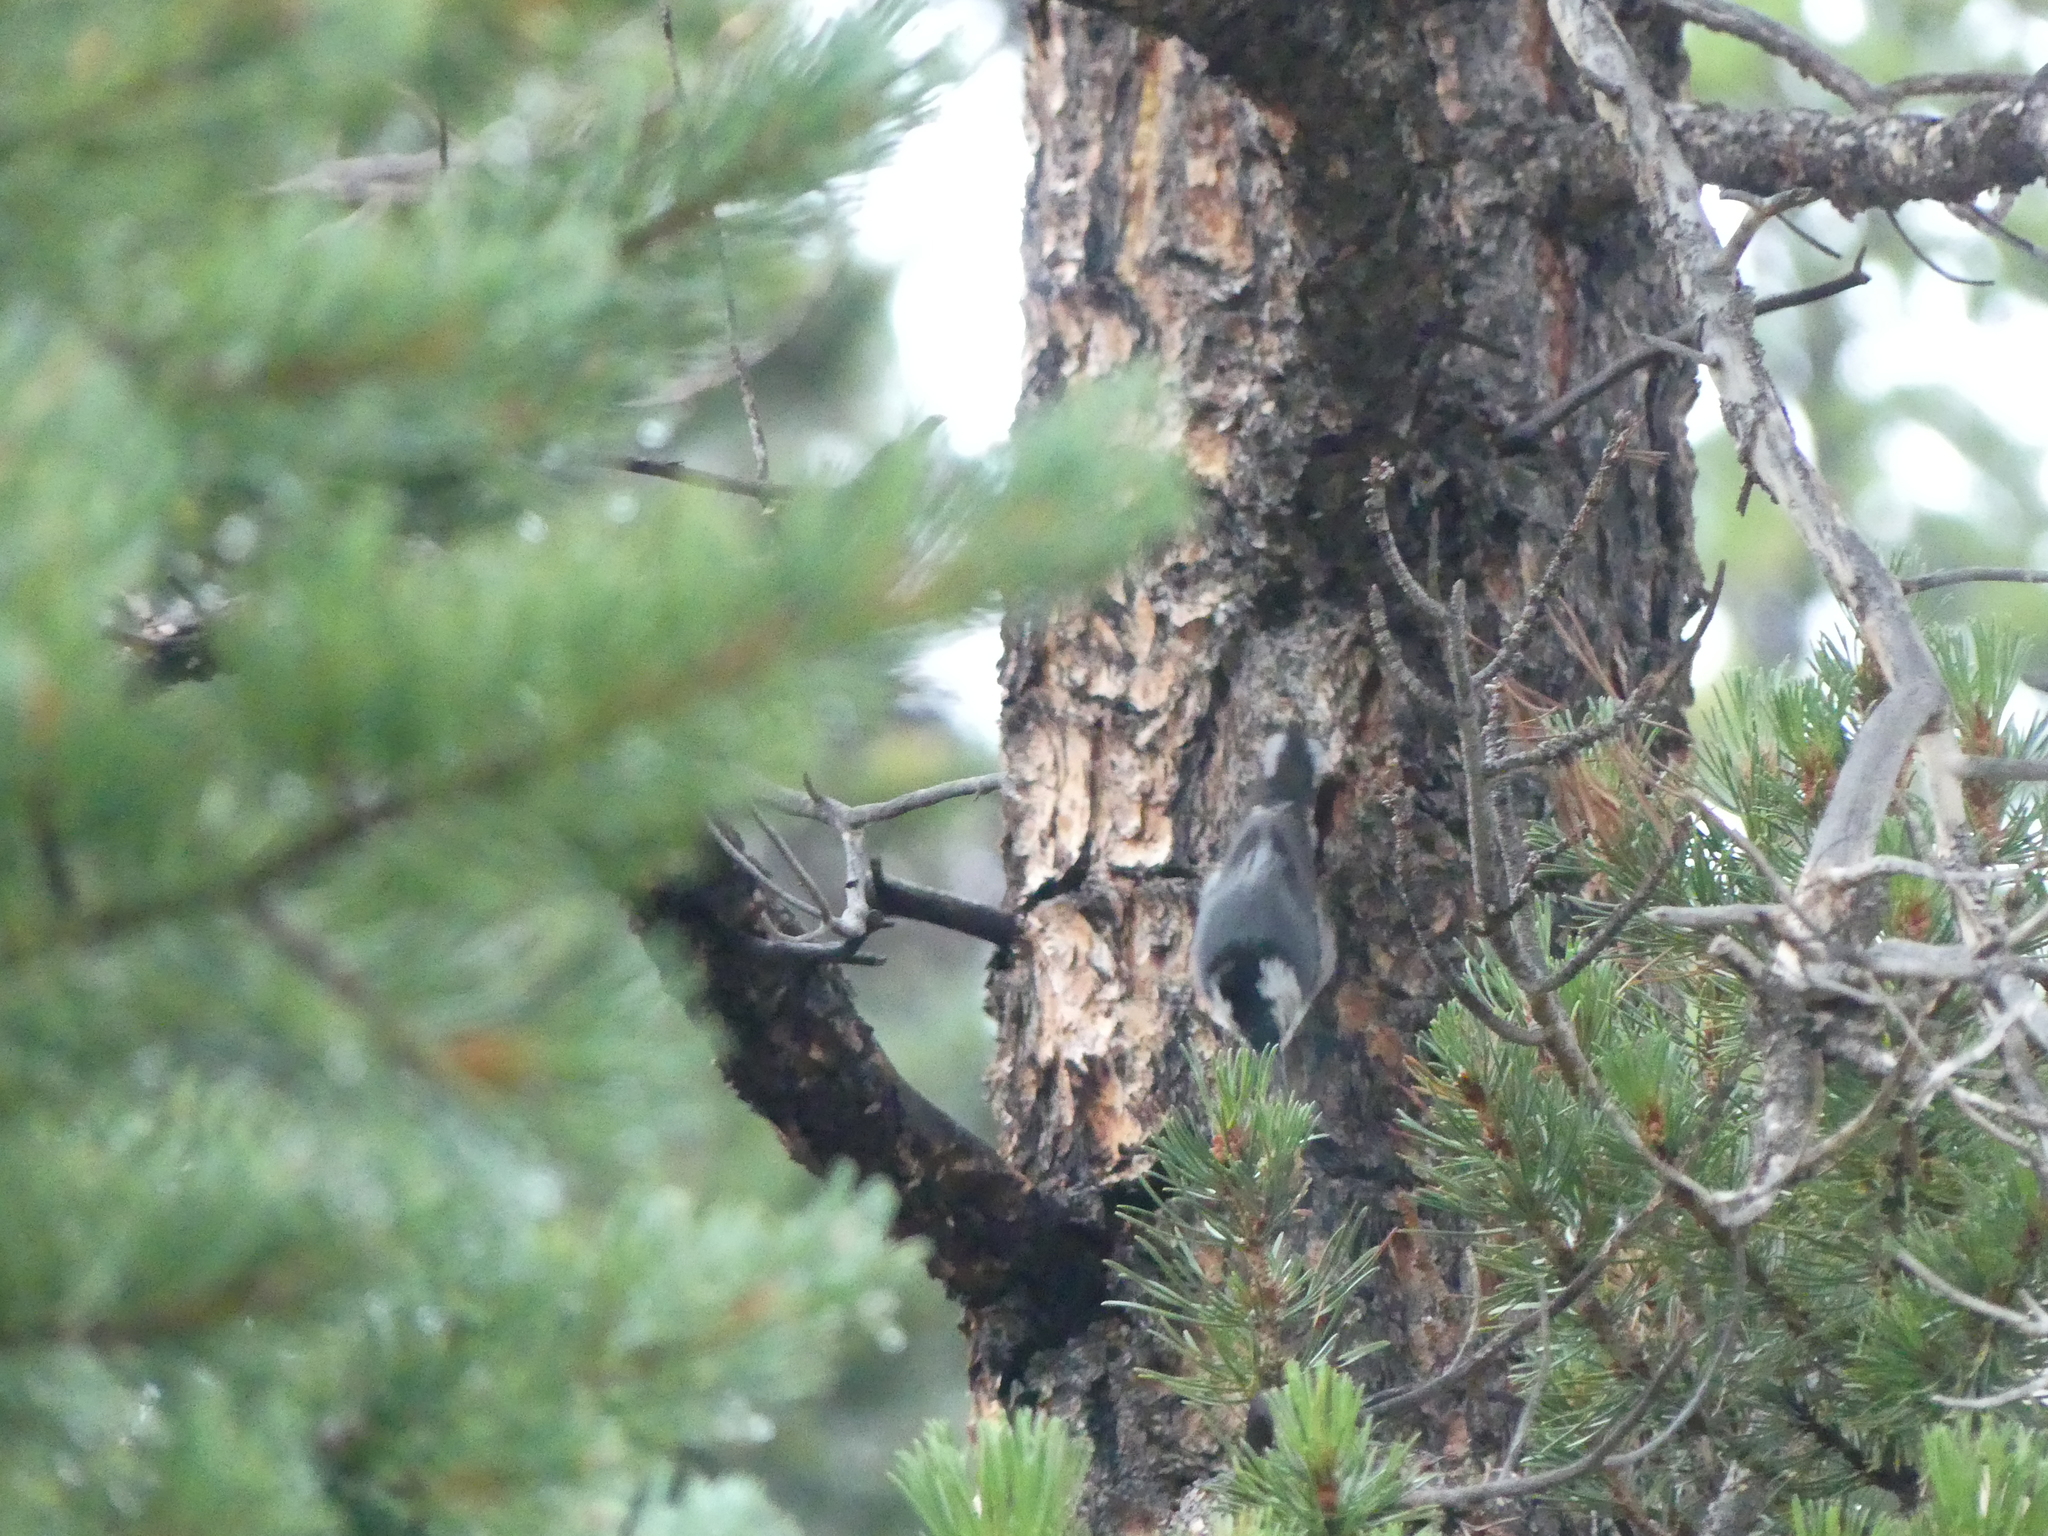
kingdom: Animalia
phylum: Chordata
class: Aves
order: Passeriformes
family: Sittidae
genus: Sitta
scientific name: Sitta carolinensis
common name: White-breasted nuthatch
